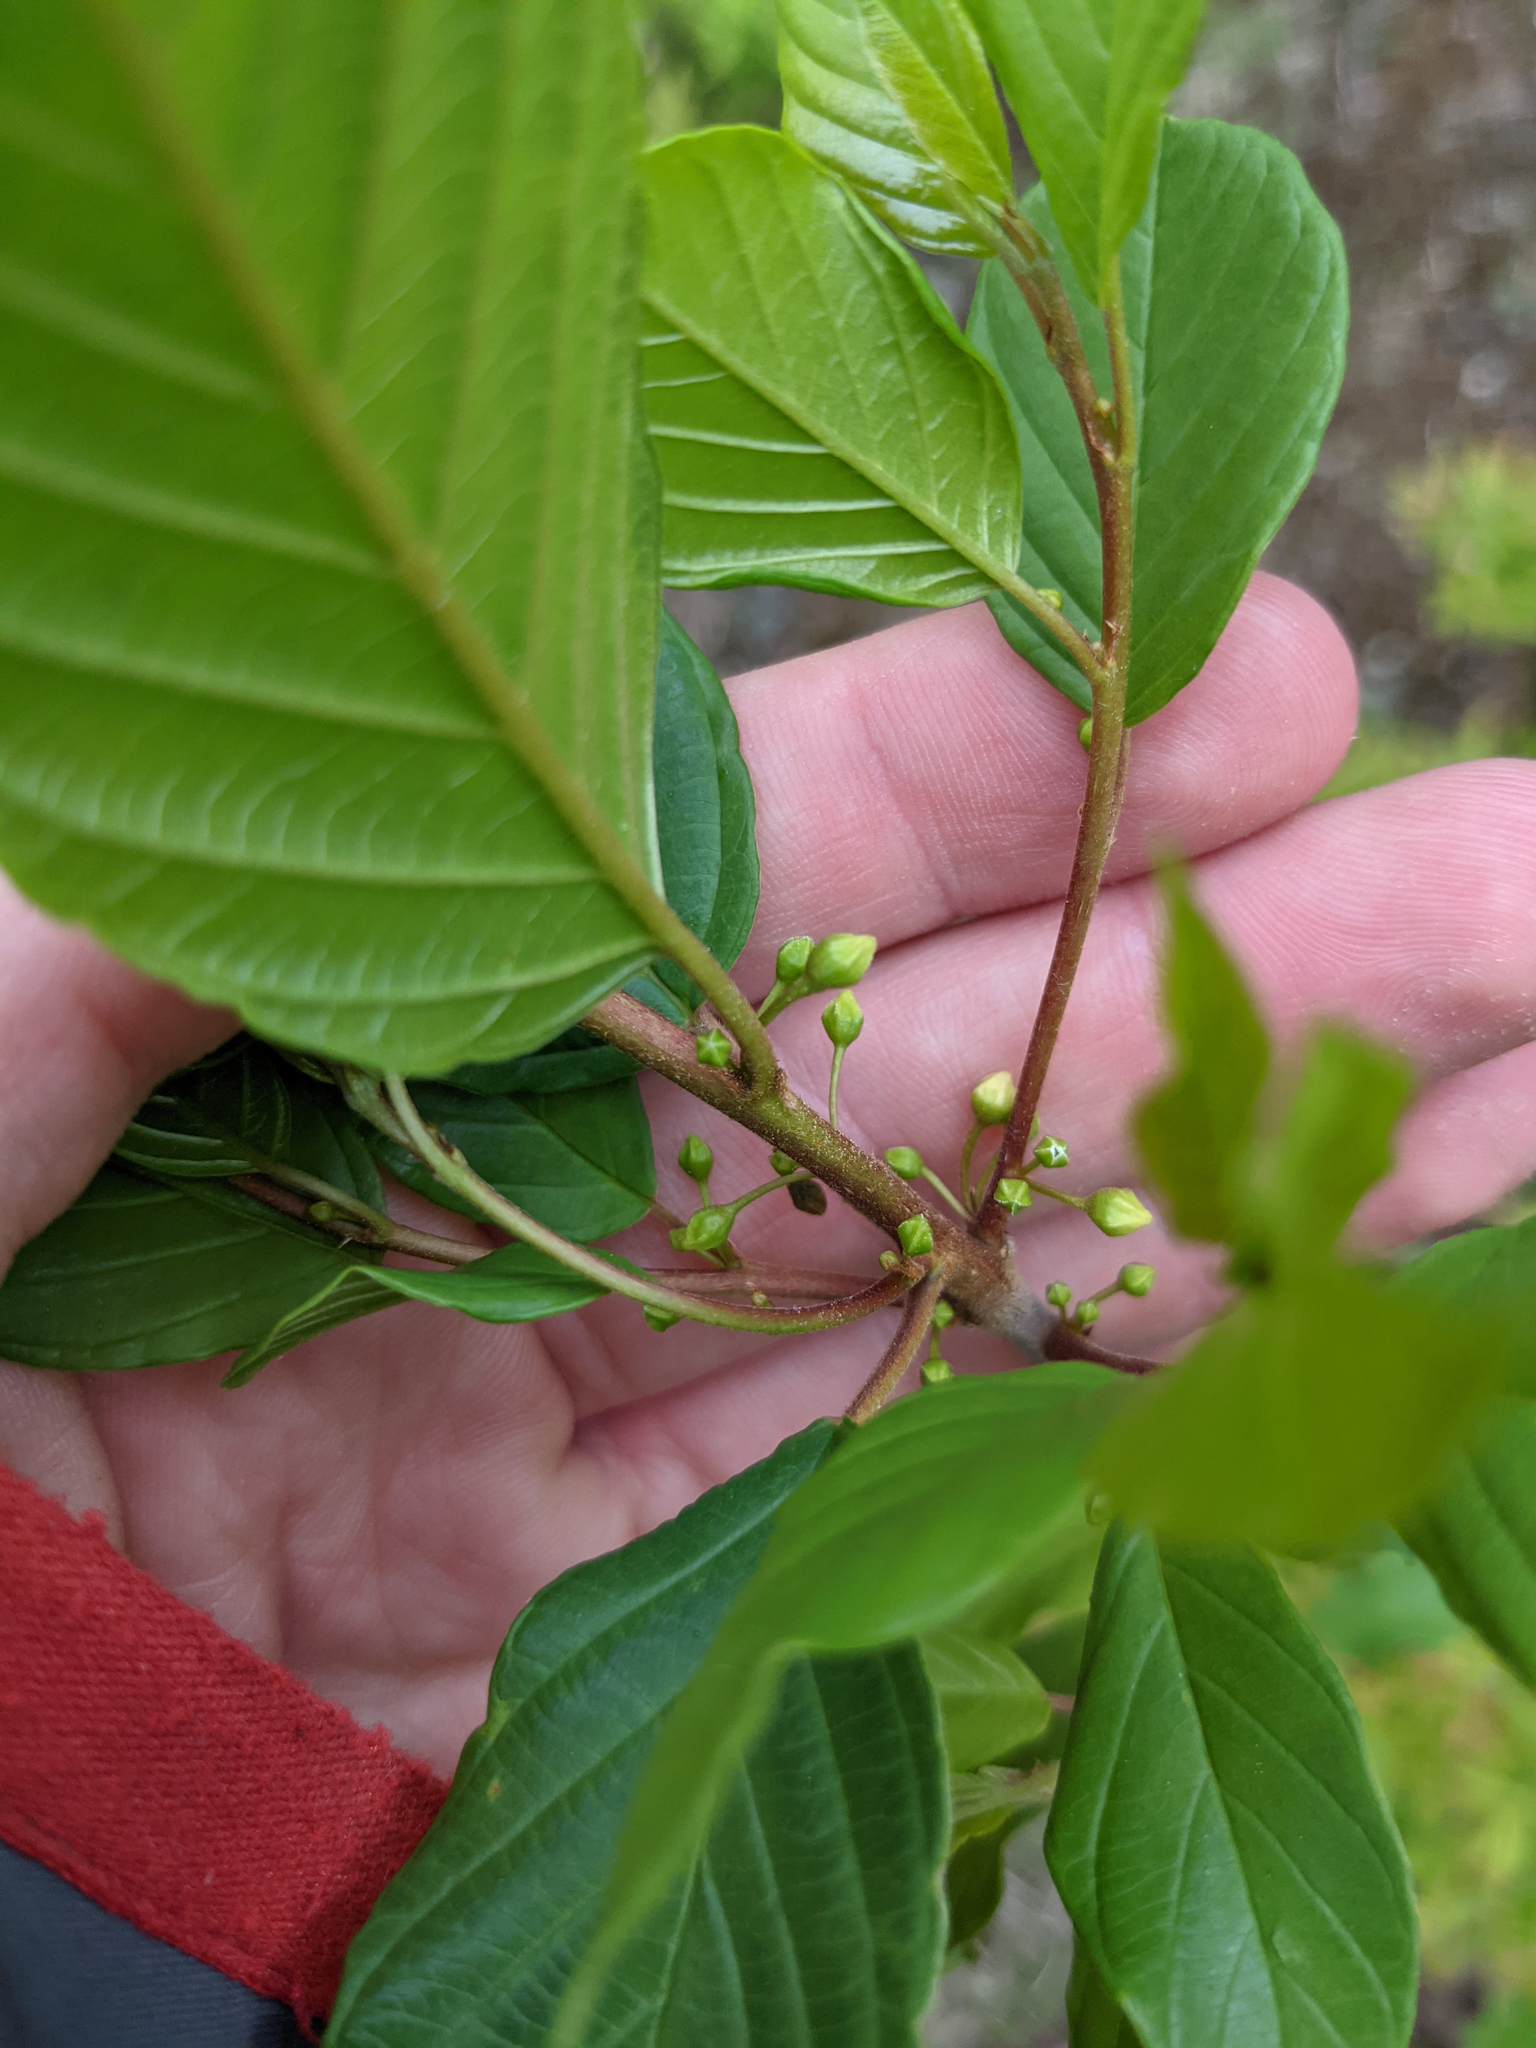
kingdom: Plantae
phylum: Tracheophyta
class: Magnoliopsida
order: Rosales
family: Rhamnaceae
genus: Frangula
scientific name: Frangula alnus
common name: Alder buckthorn
